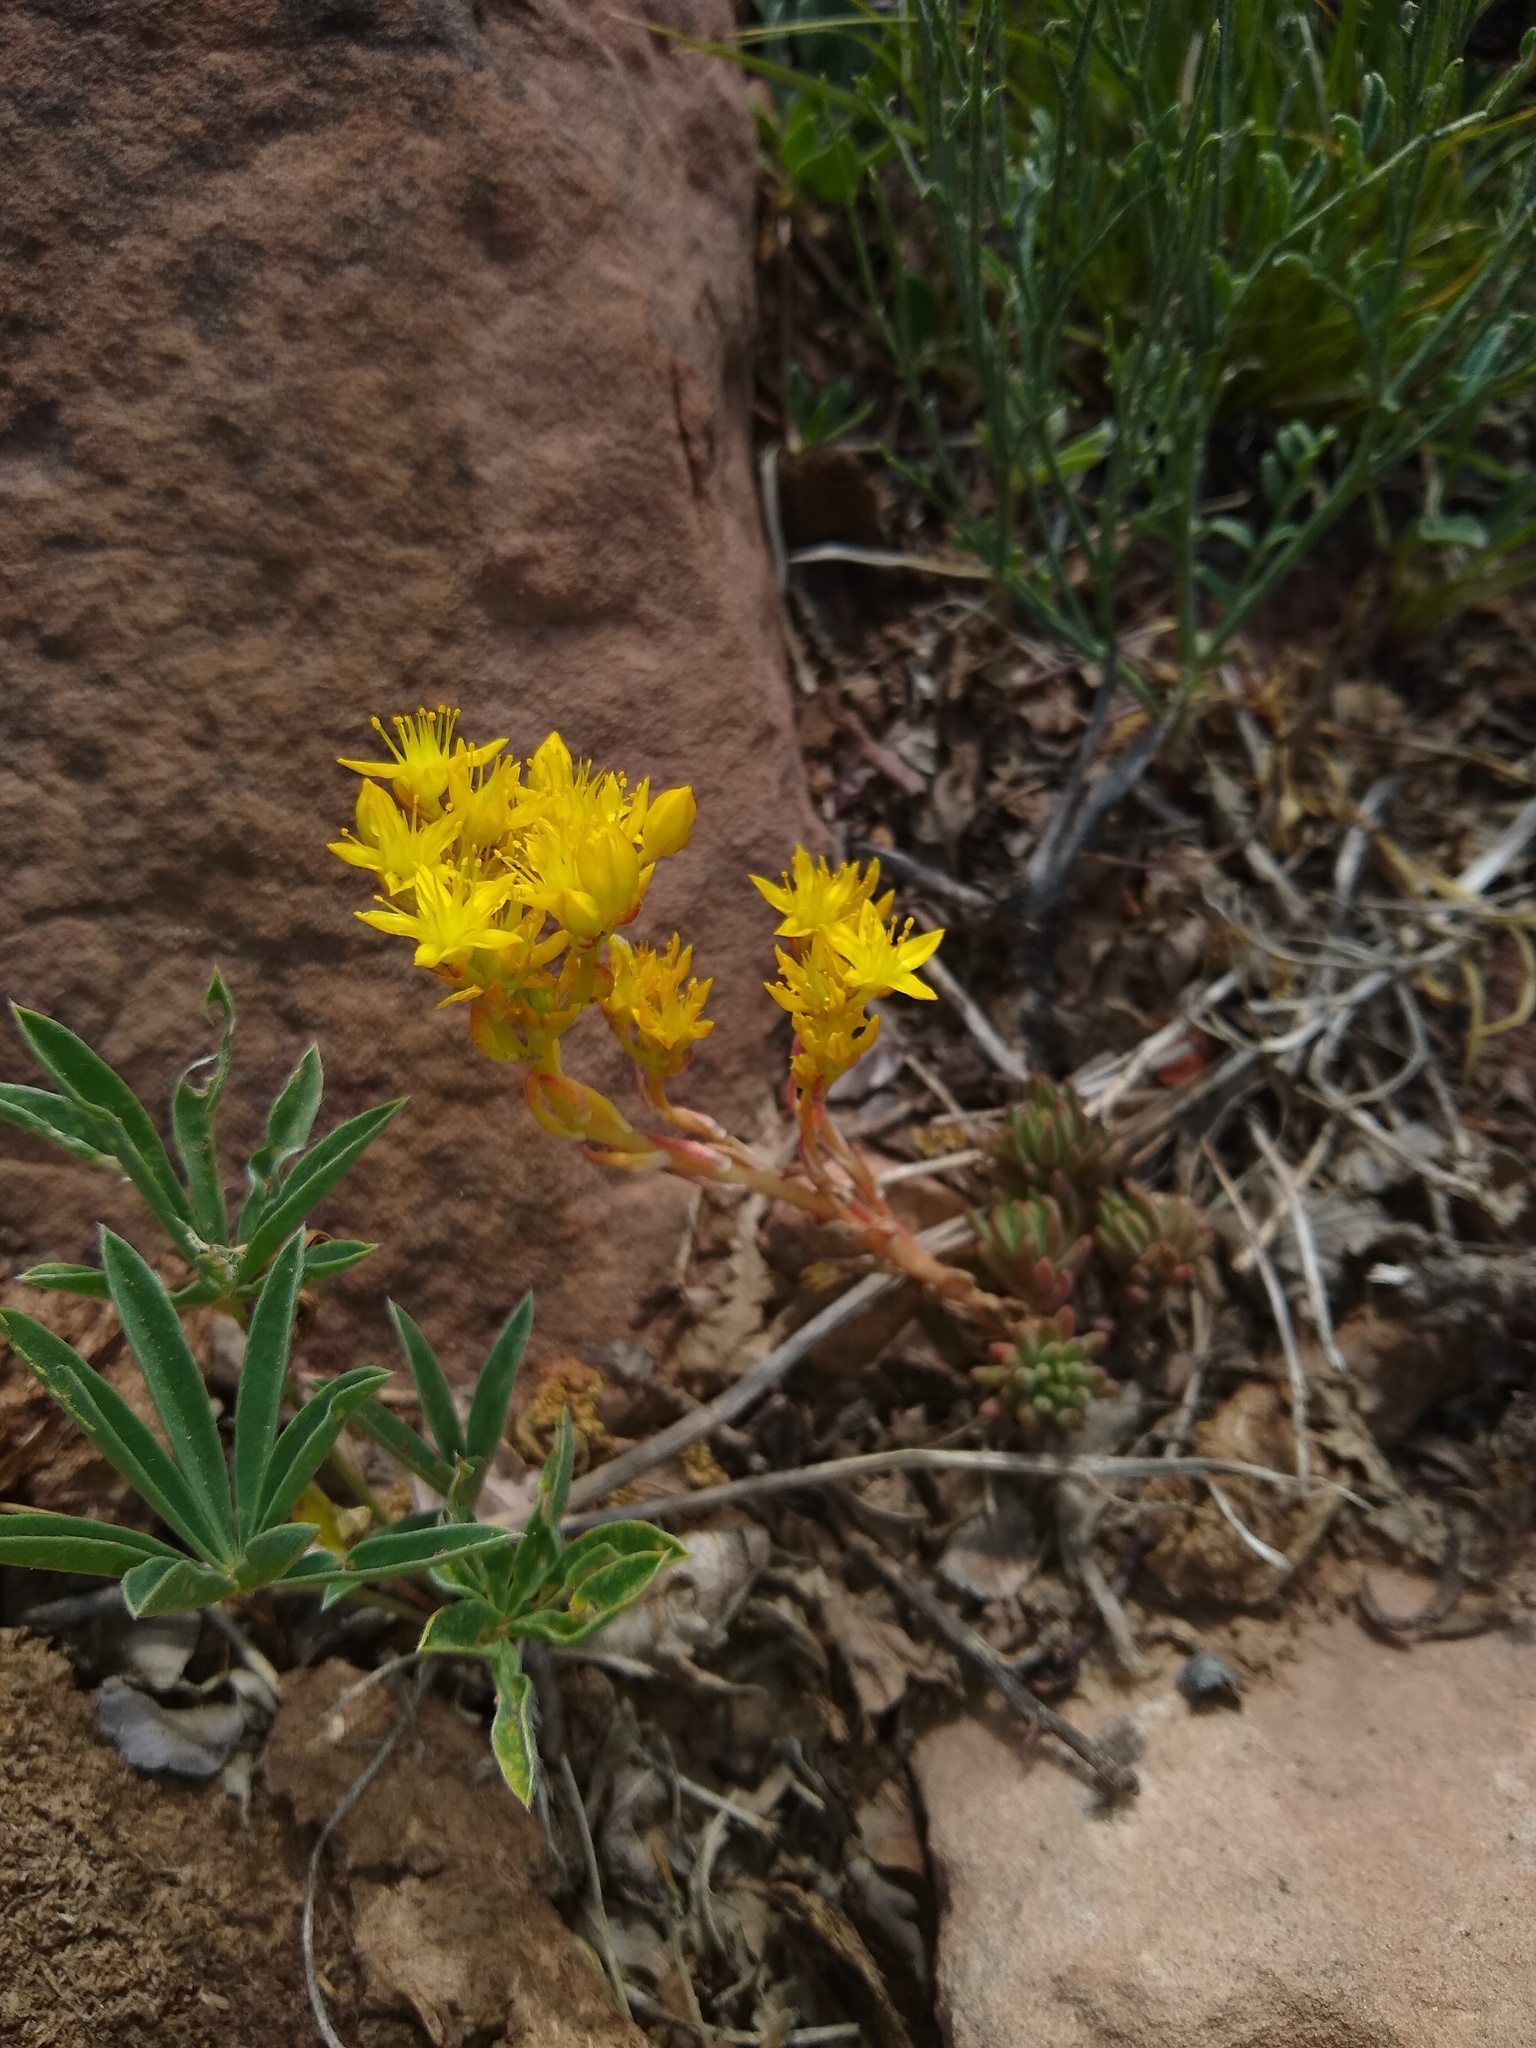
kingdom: Plantae
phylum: Tracheophyta
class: Magnoliopsida
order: Saxifragales
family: Crassulaceae
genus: Sedum
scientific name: Sedum lanceolatum
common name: Common stonecrop
